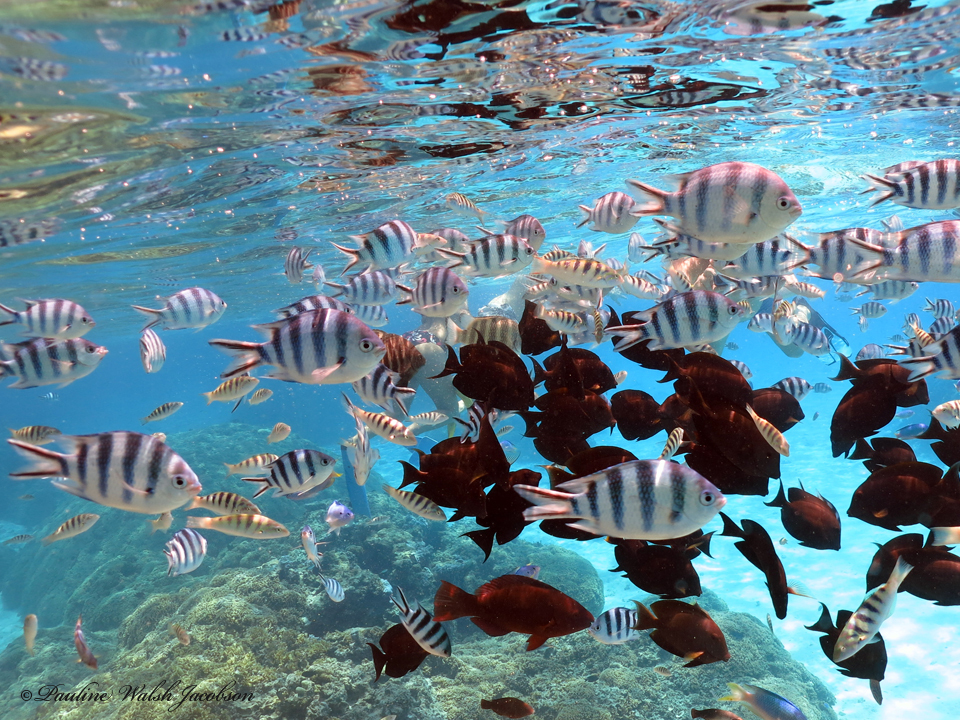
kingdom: Animalia
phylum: Chordata
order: Perciformes
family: Pomacentridae
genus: Abudefduf
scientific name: Abudefduf sexfasciatus
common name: Scissortail sergeant
